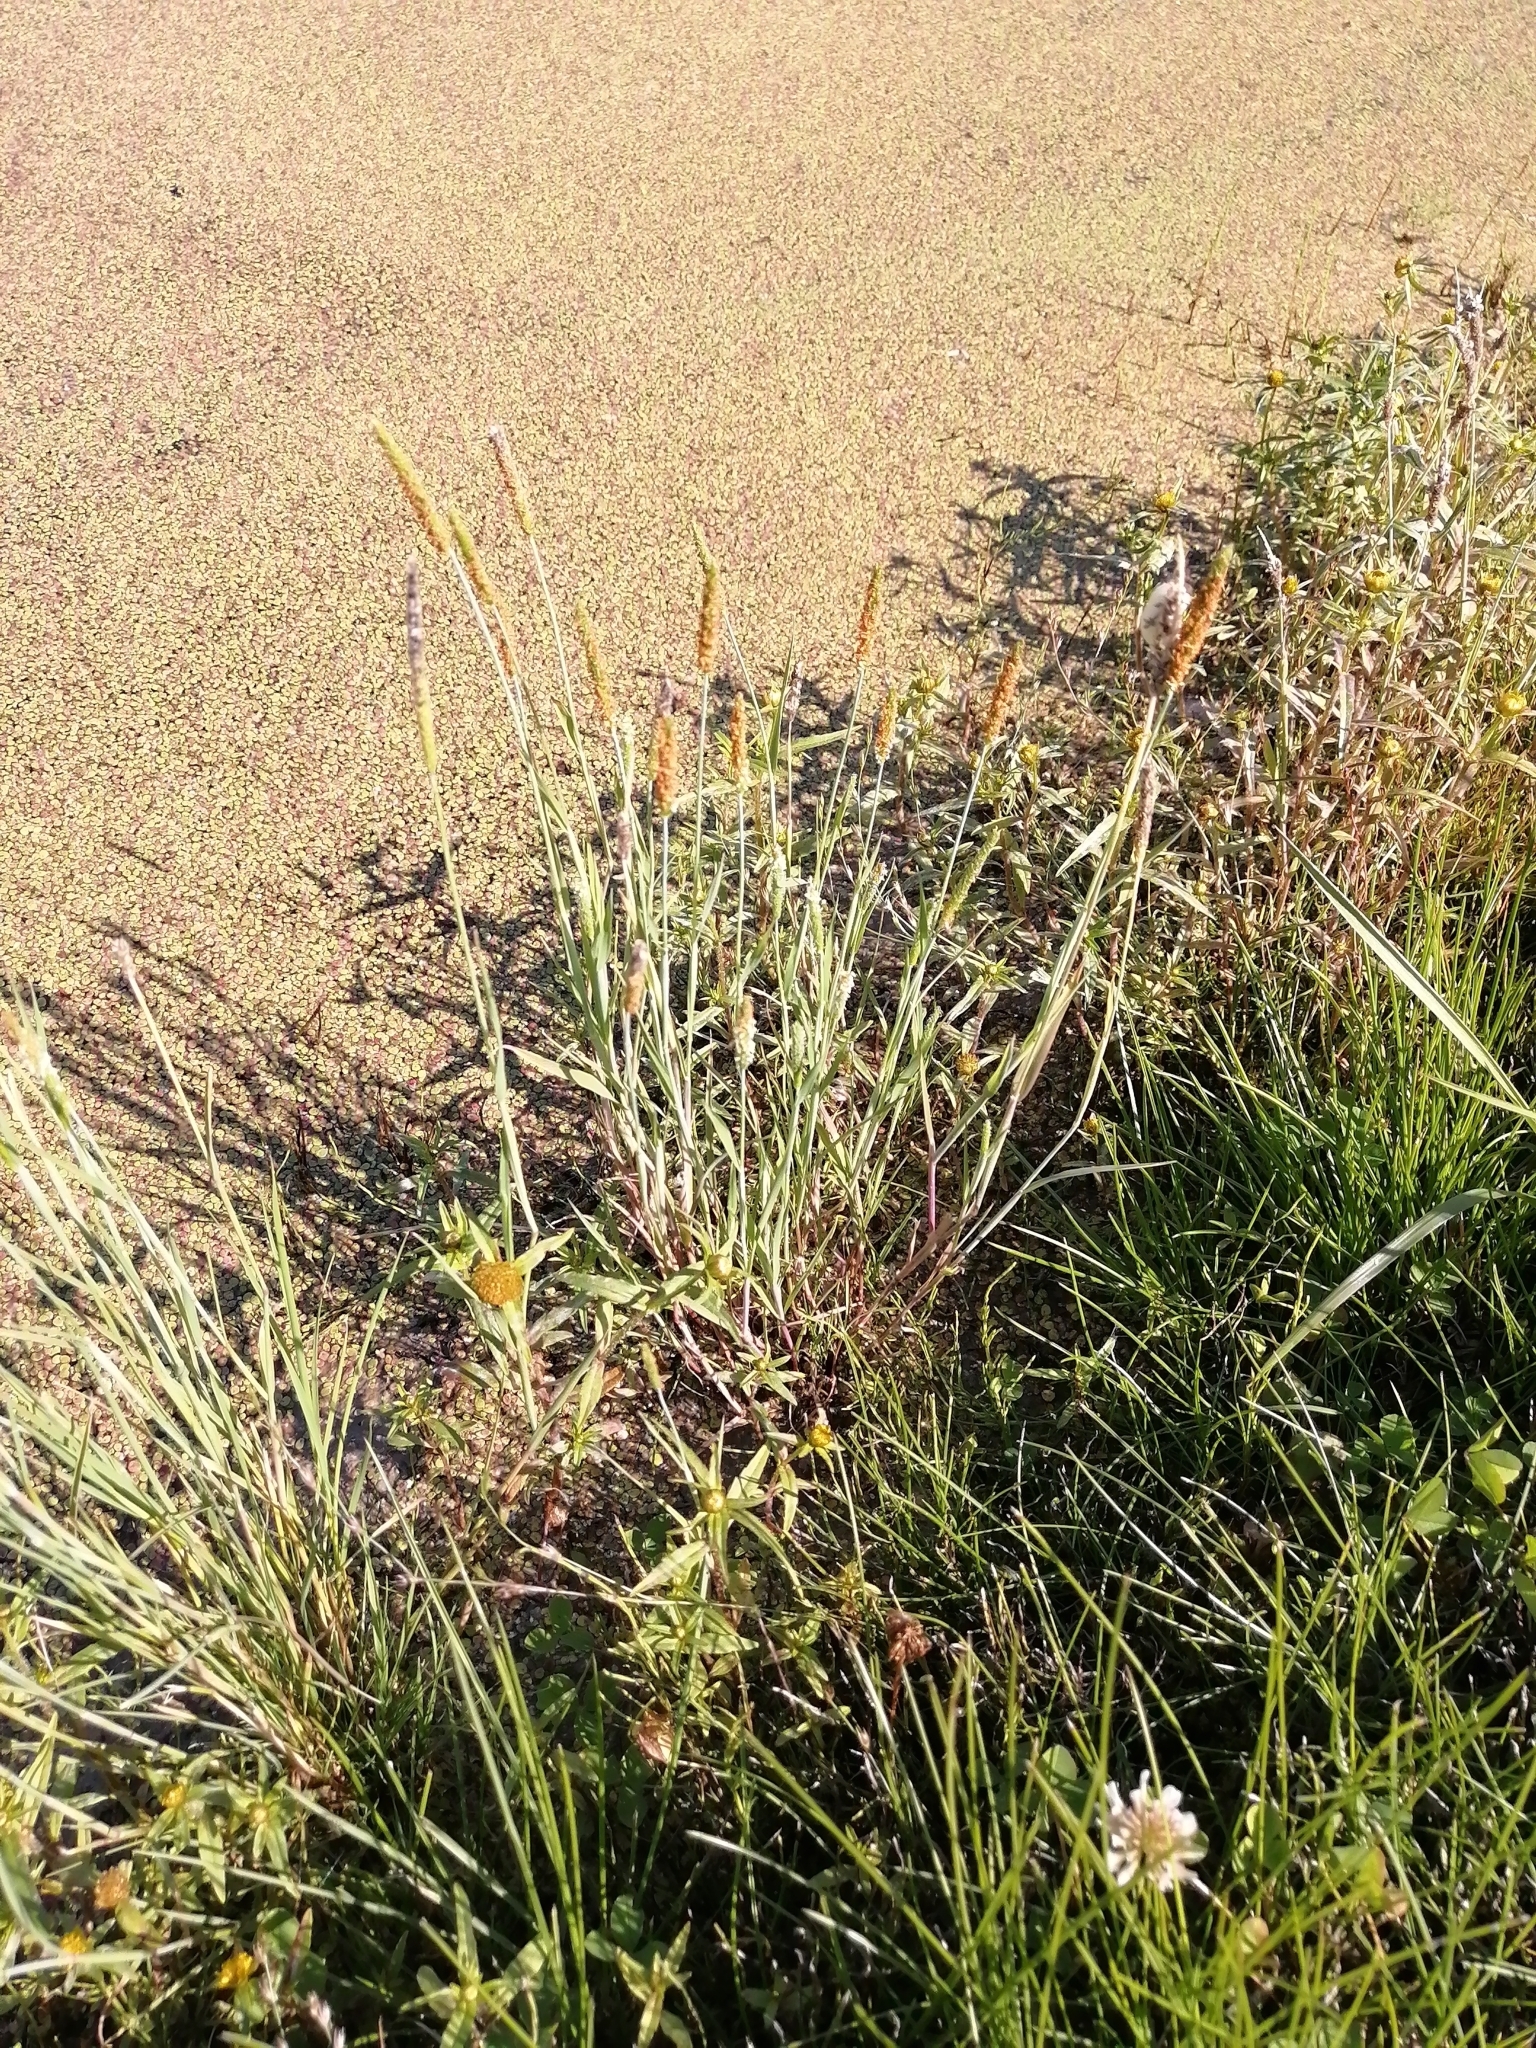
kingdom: Plantae
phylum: Tracheophyta
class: Liliopsida
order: Poales
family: Poaceae
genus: Alopecurus
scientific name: Alopecurus aequalis
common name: Orange foxtail
